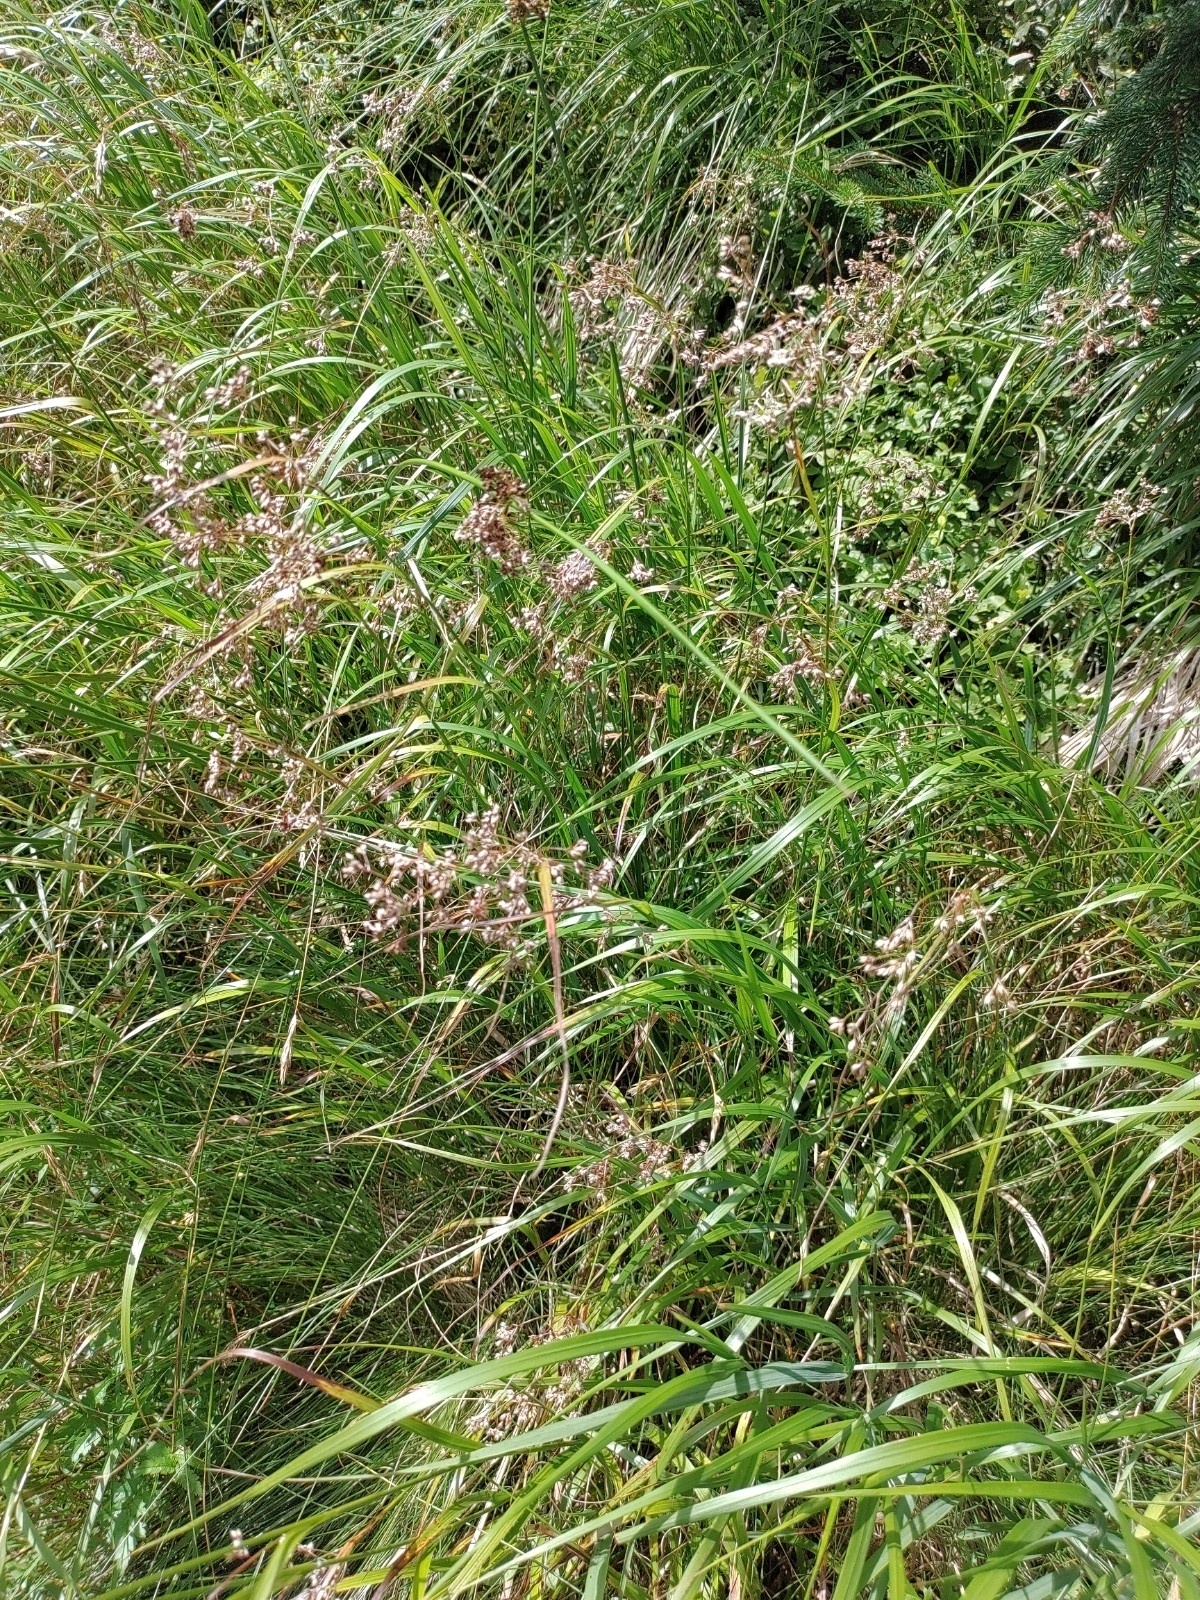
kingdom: Plantae
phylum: Tracheophyta
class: Liliopsida
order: Poales
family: Juncaceae
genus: Luzula
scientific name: Luzula luzuloides
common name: White wood-rush
